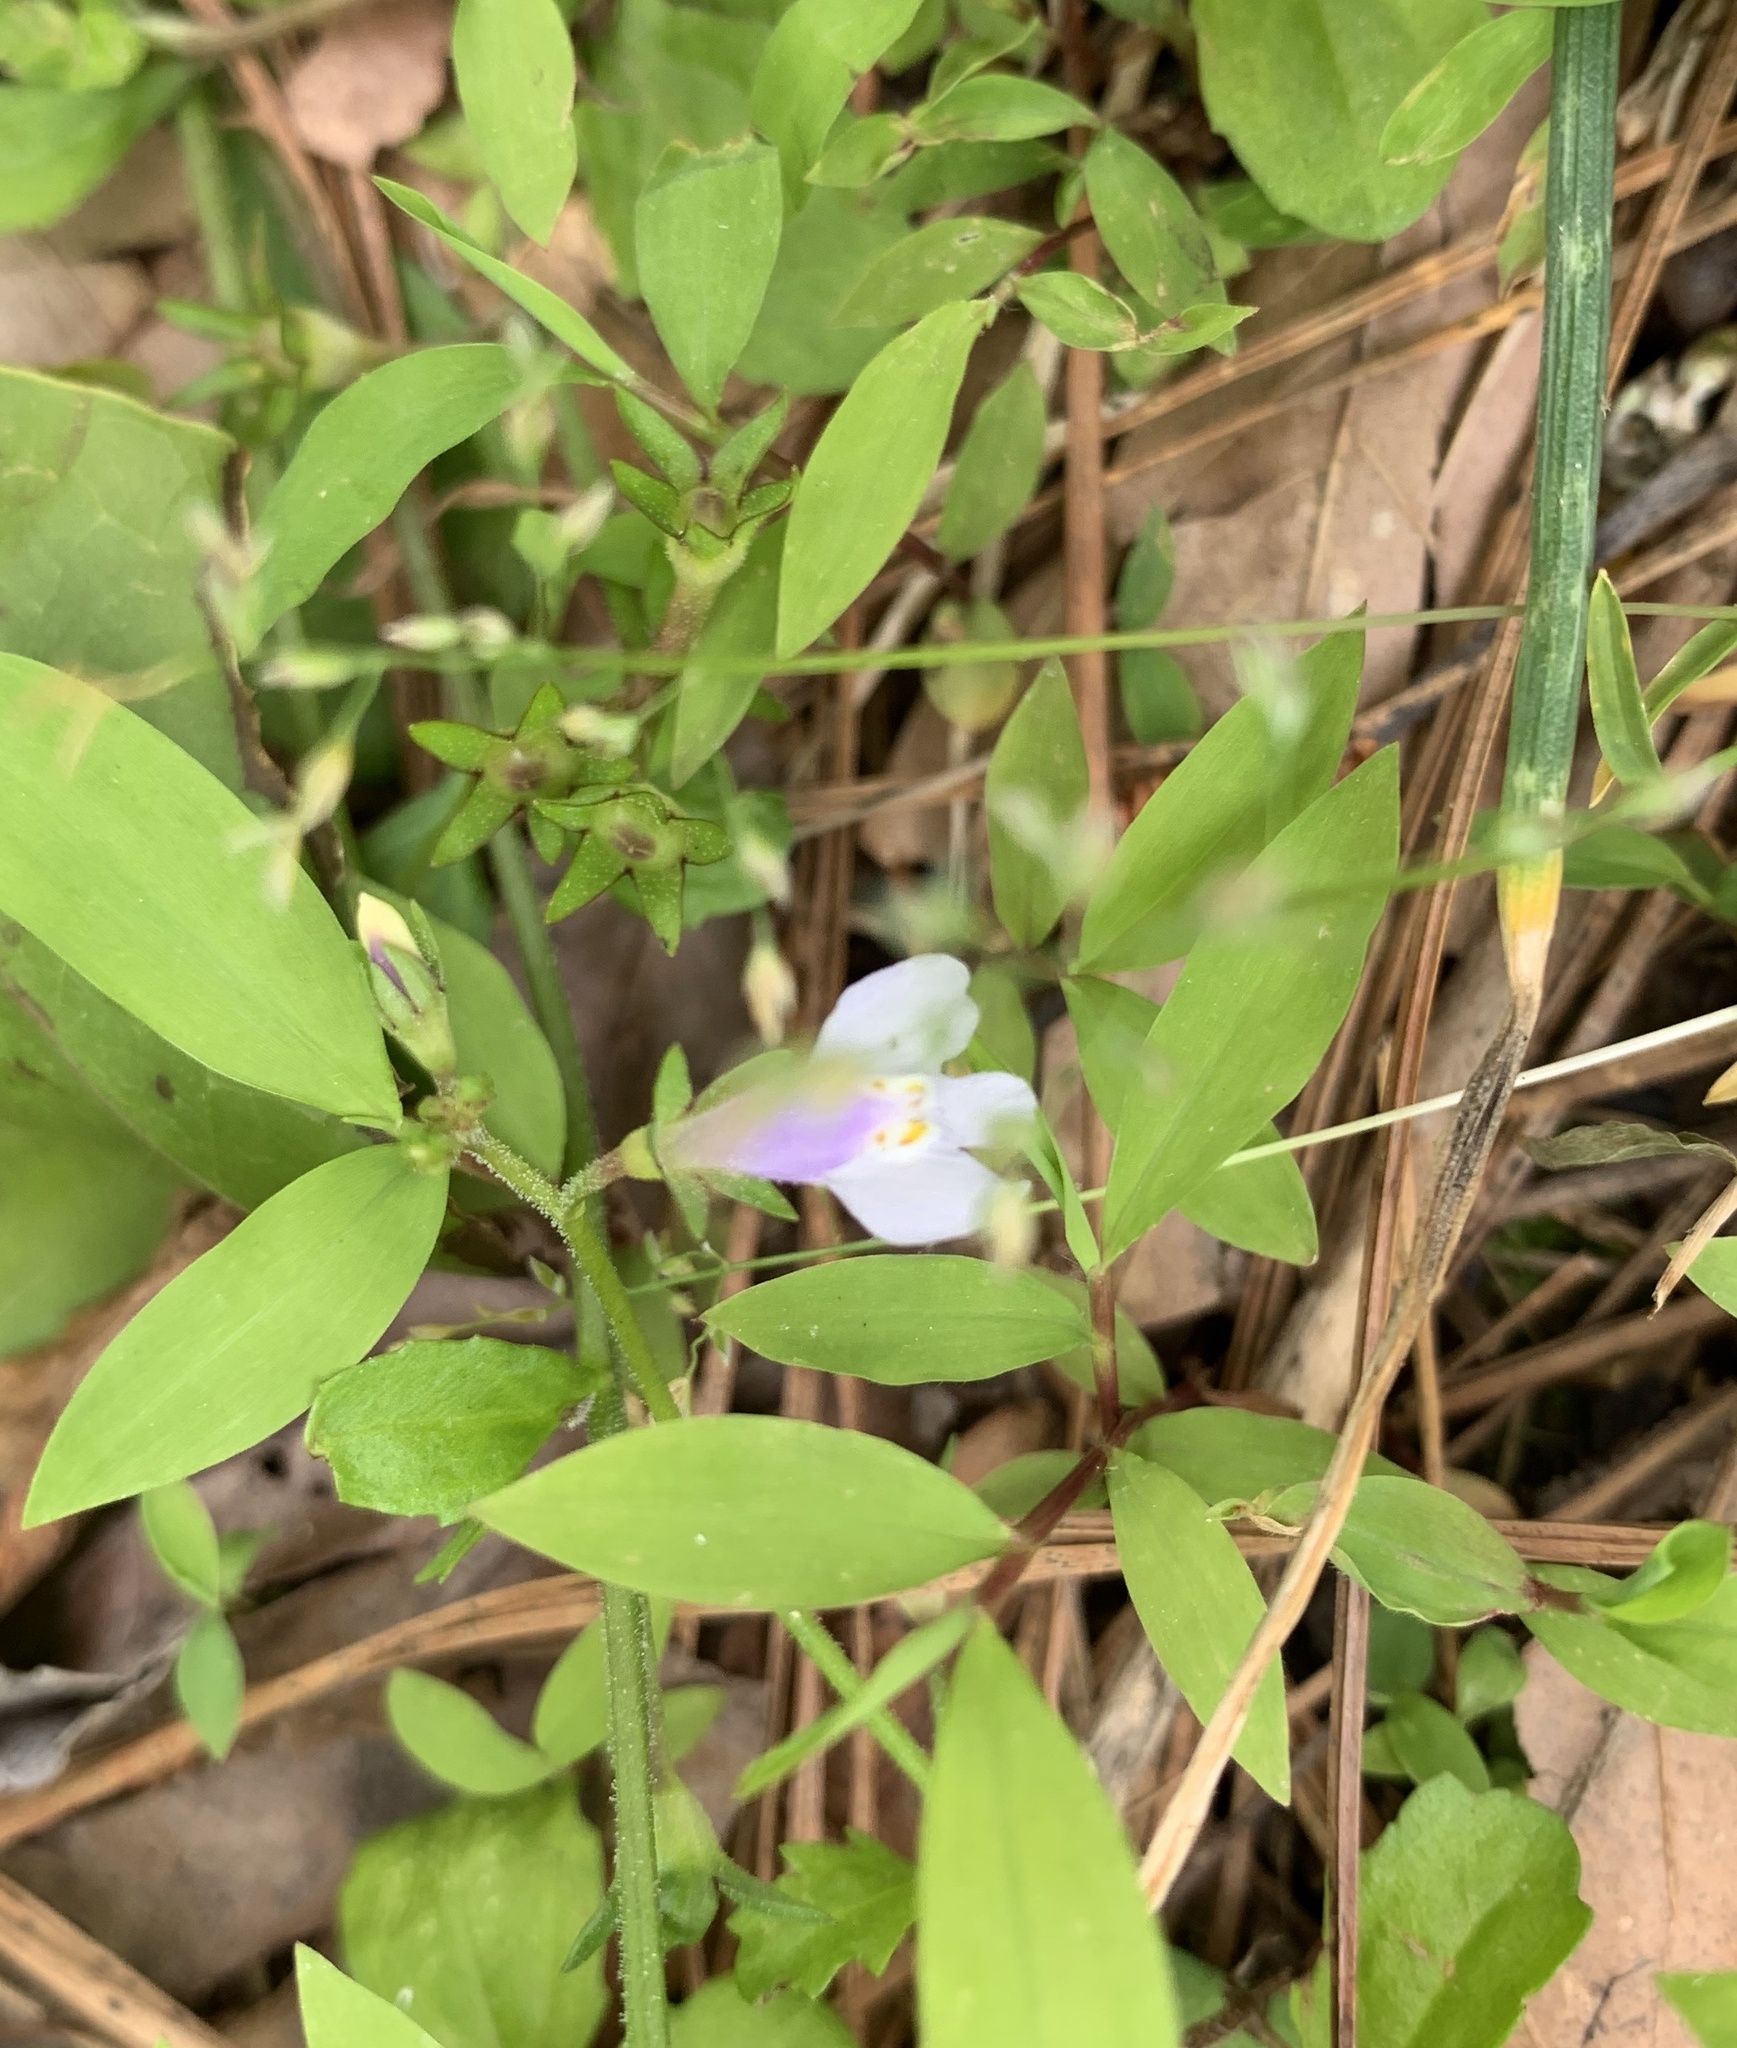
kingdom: Plantae
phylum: Tracheophyta
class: Magnoliopsida
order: Lamiales
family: Mazaceae
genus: Mazus
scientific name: Mazus pumilus
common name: Japanese mazus
